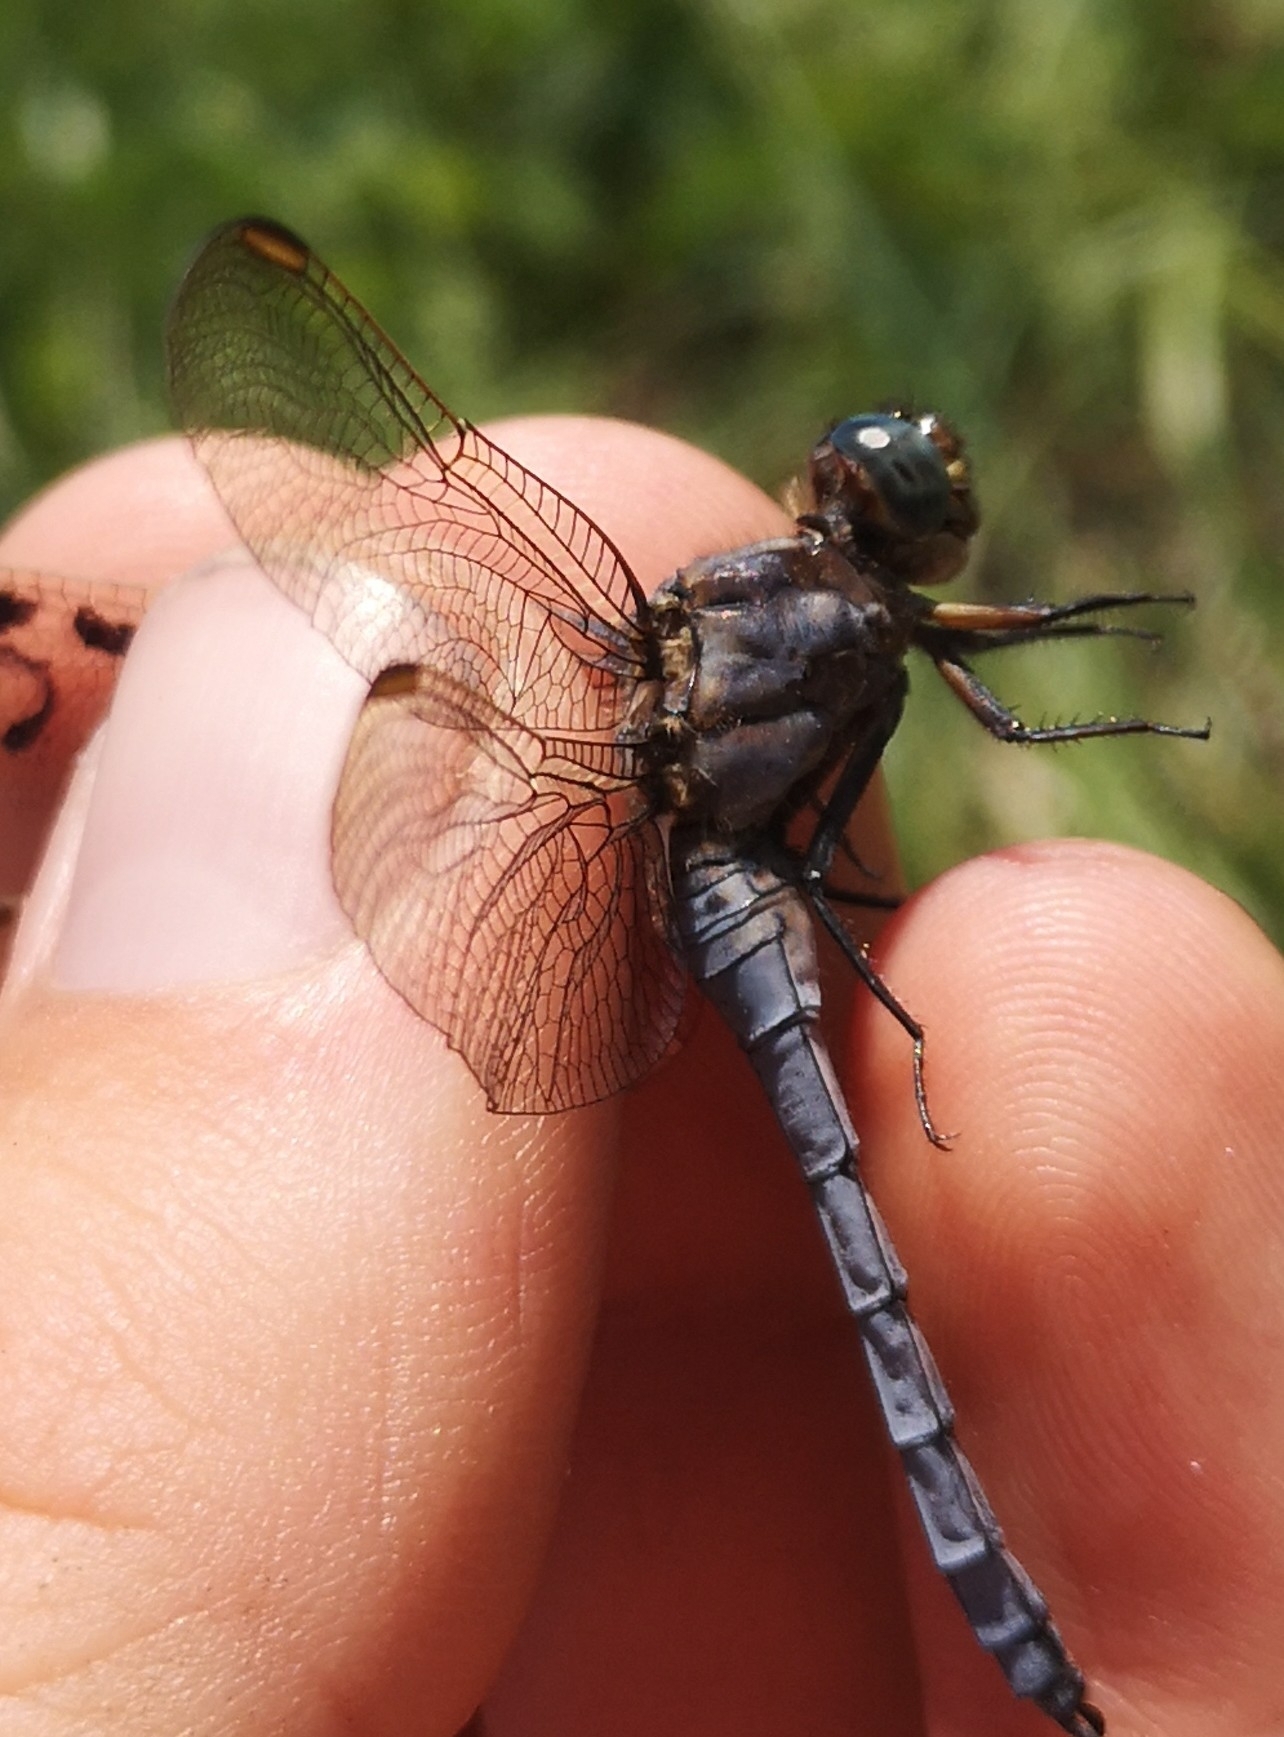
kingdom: Animalia
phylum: Arthropoda
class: Insecta
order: Odonata
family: Libellulidae
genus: Orthetrum
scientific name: Orthetrum coerulescens
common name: Keeled skimmer
